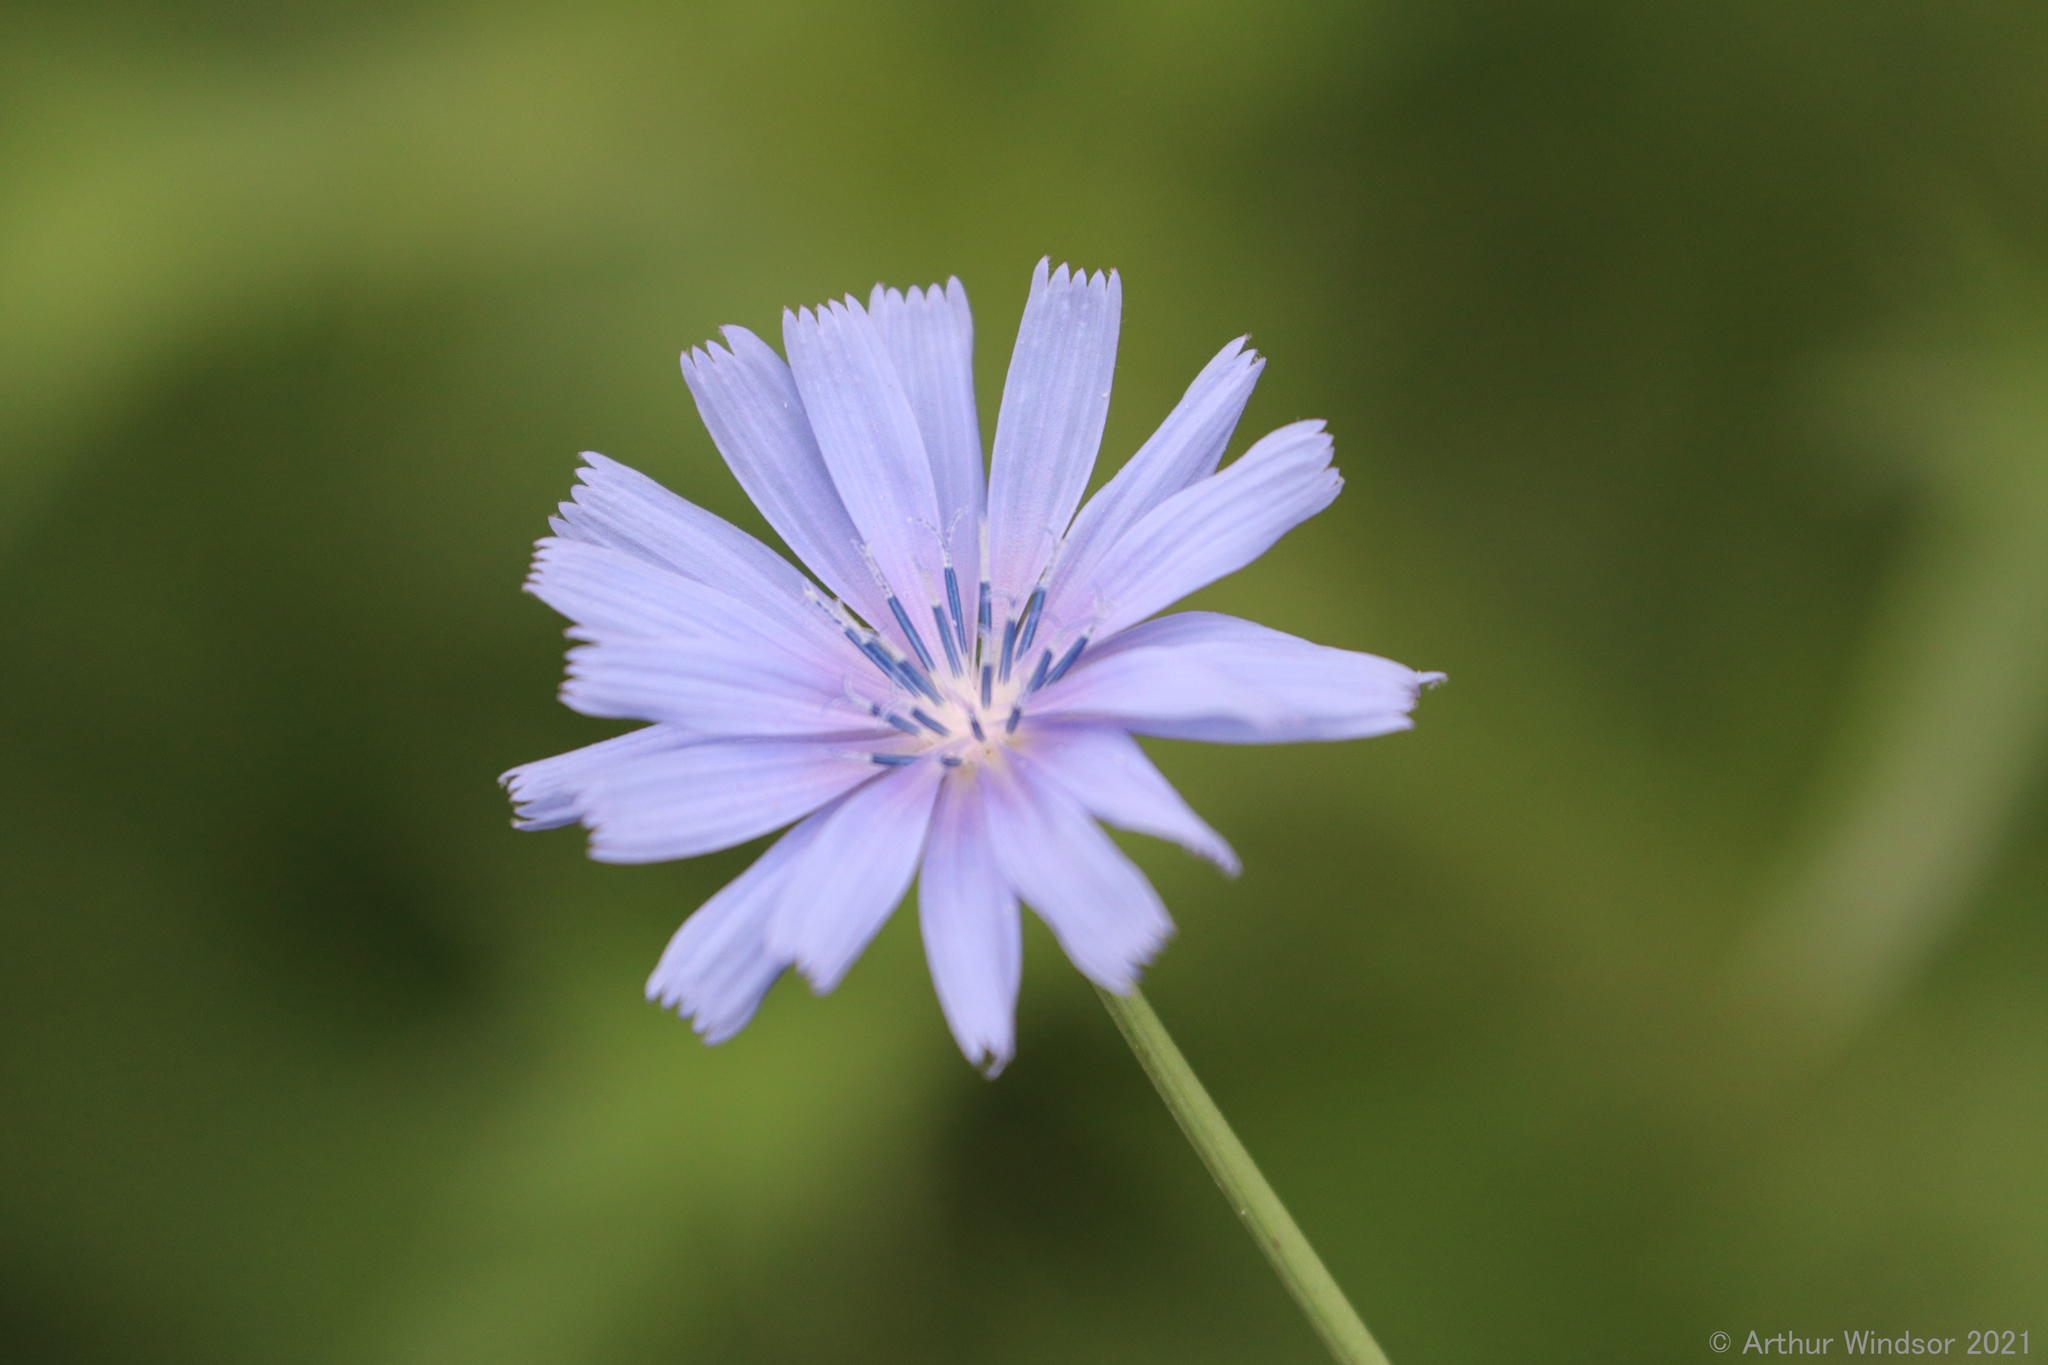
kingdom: Plantae
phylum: Tracheophyta
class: Magnoliopsida
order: Asterales
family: Asteraceae
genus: Cichorium
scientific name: Cichorium intybus
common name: Chicory
